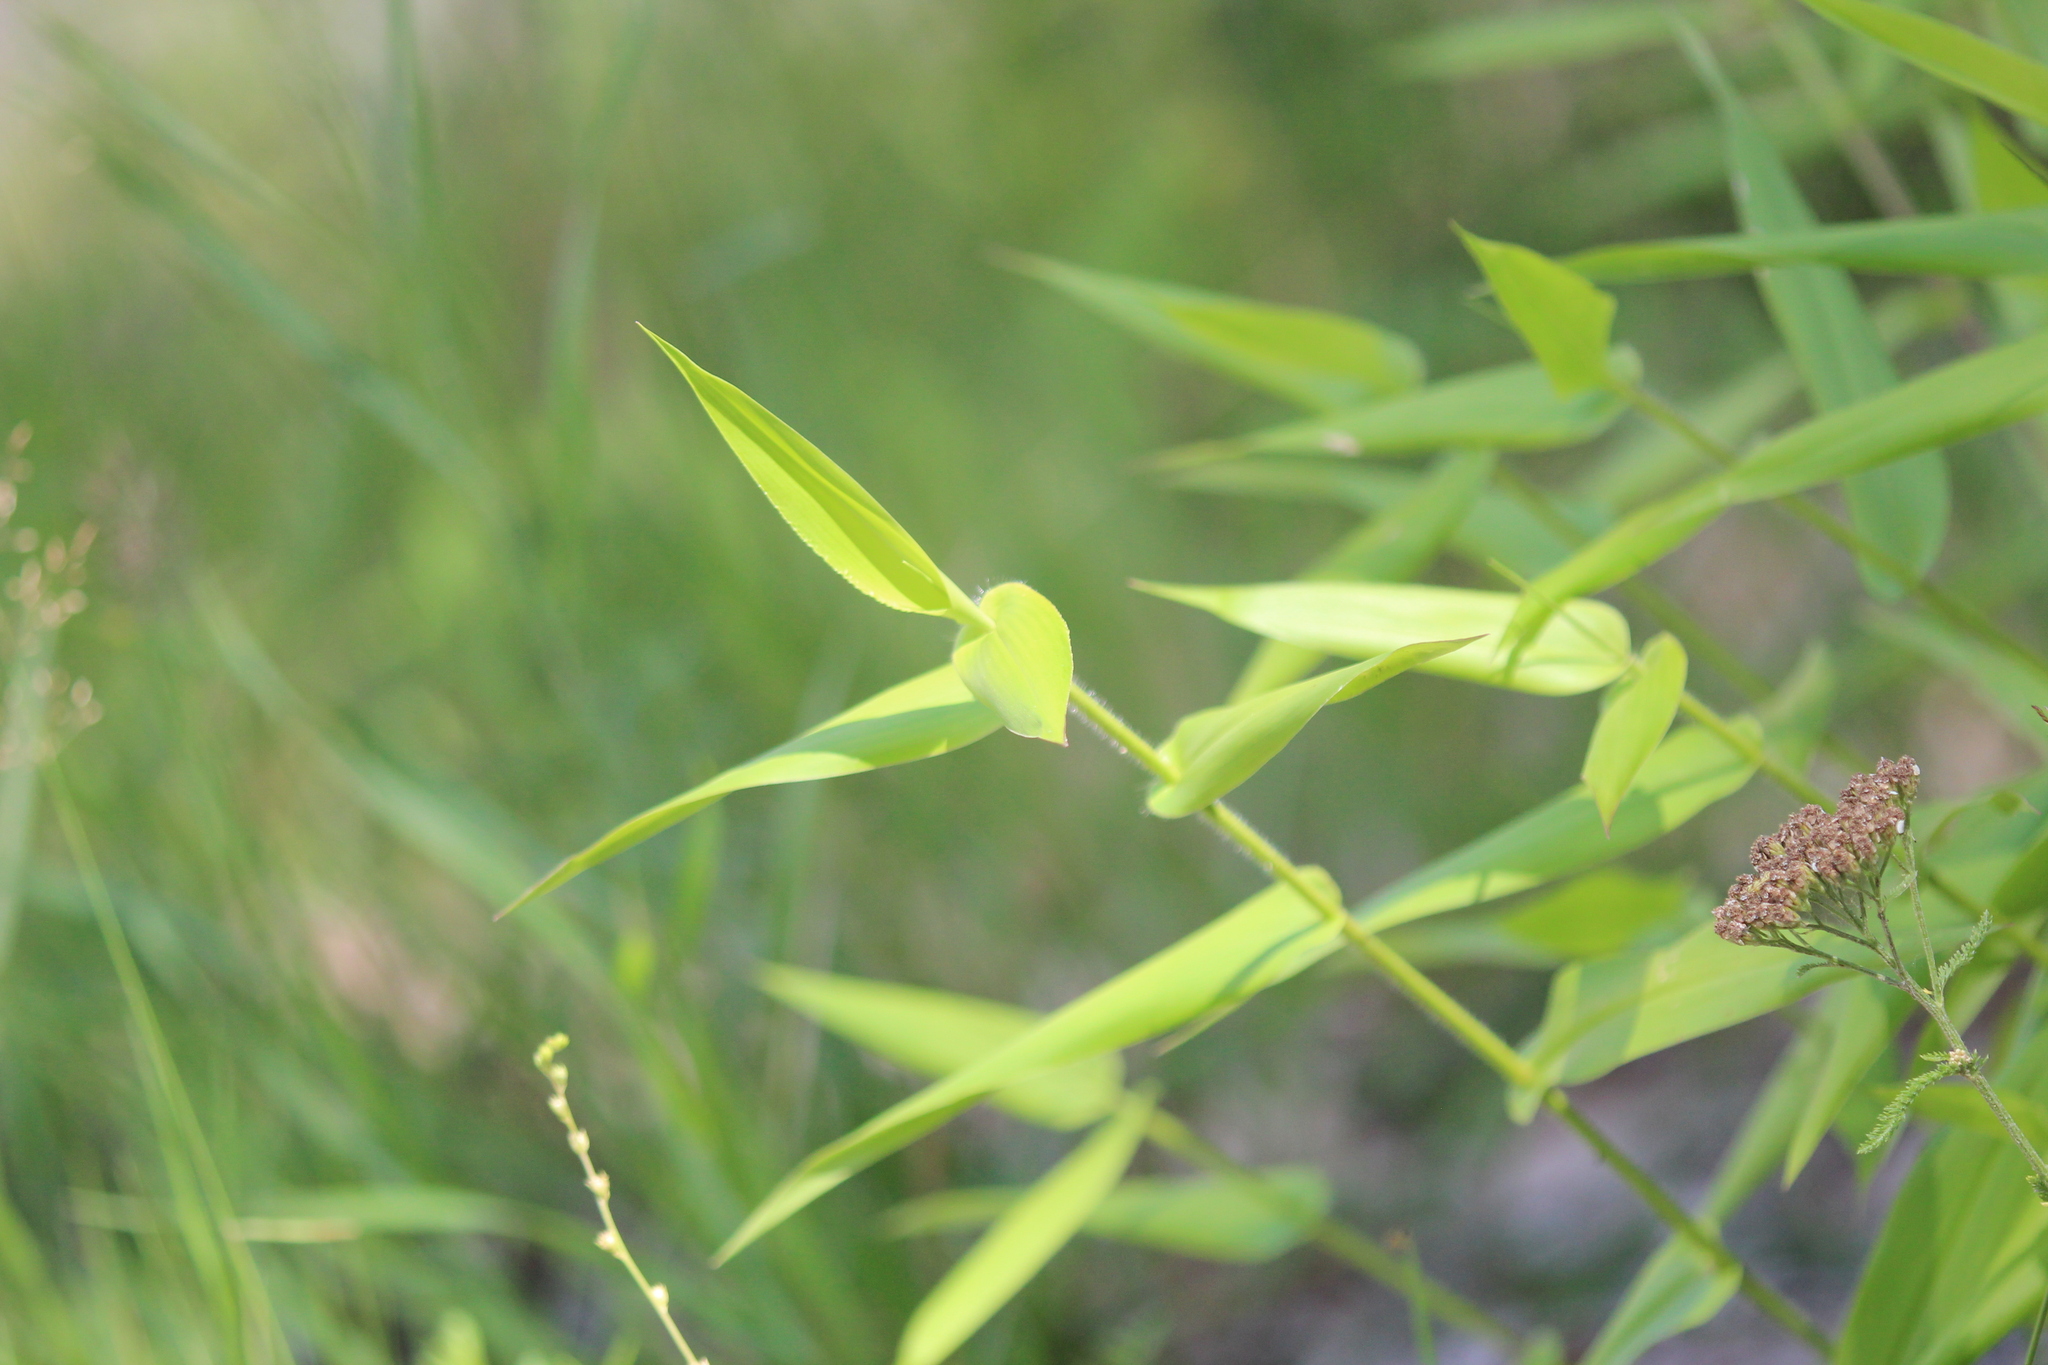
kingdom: Plantae
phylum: Tracheophyta
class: Liliopsida
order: Poales
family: Poaceae
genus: Dichanthelium
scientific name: Dichanthelium clandestinum
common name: Deer-tongue grass
